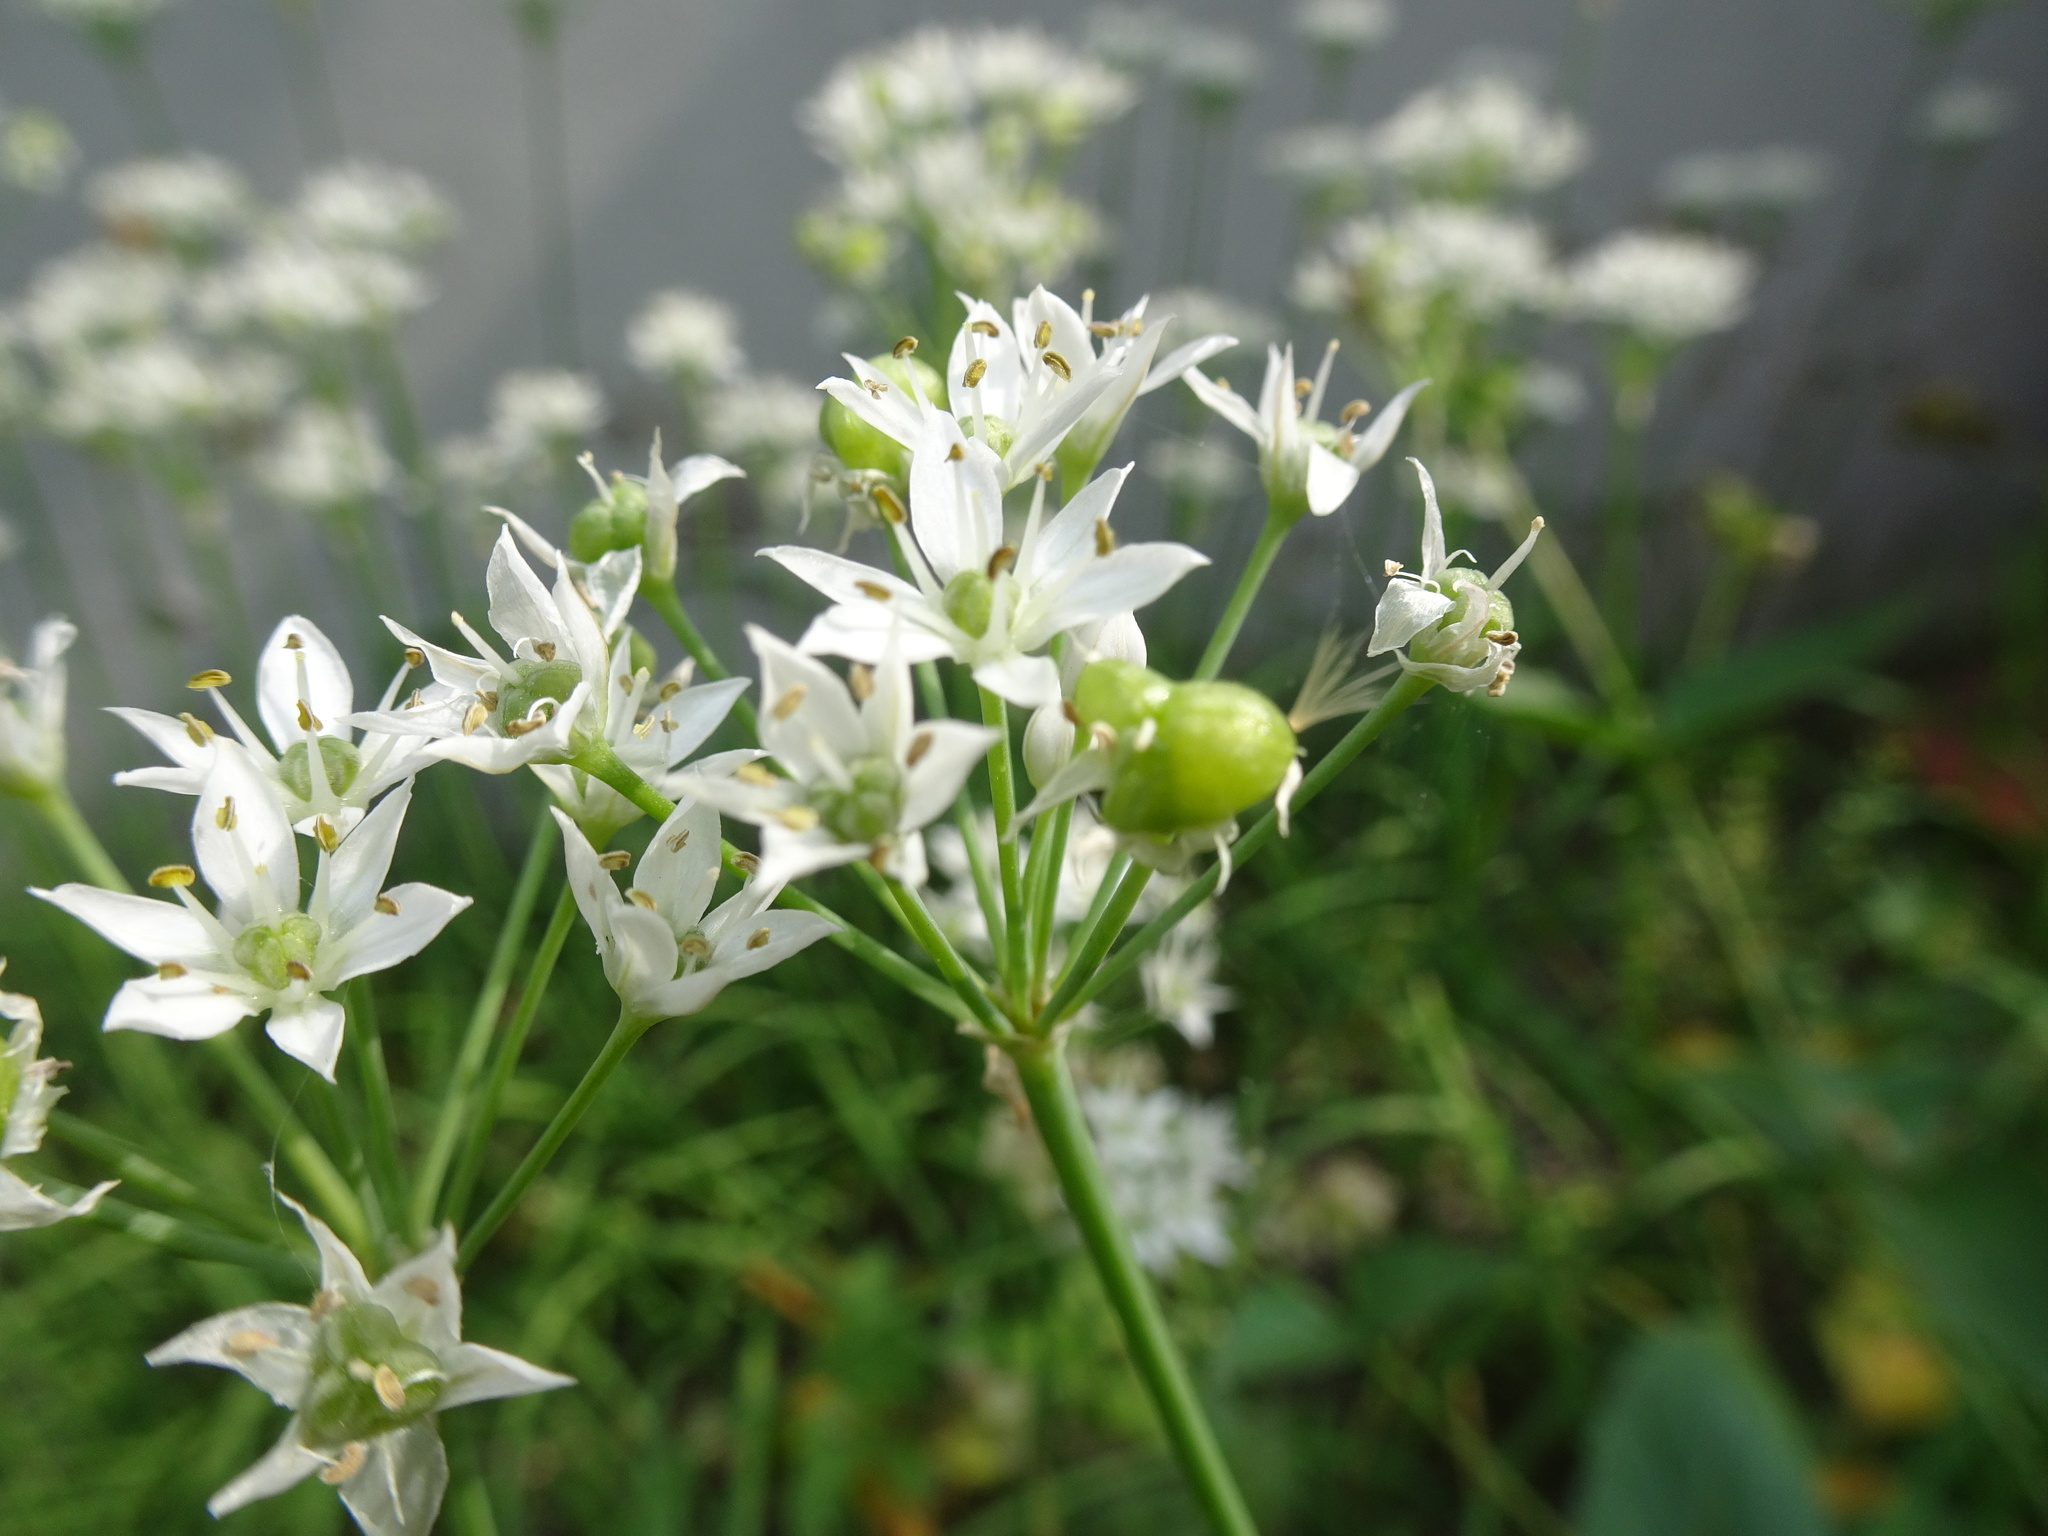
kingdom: Plantae
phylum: Tracheophyta
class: Liliopsida
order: Asparagales
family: Amaryllidaceae
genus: Allium
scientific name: Allium tuberosum
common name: Chinese chives
